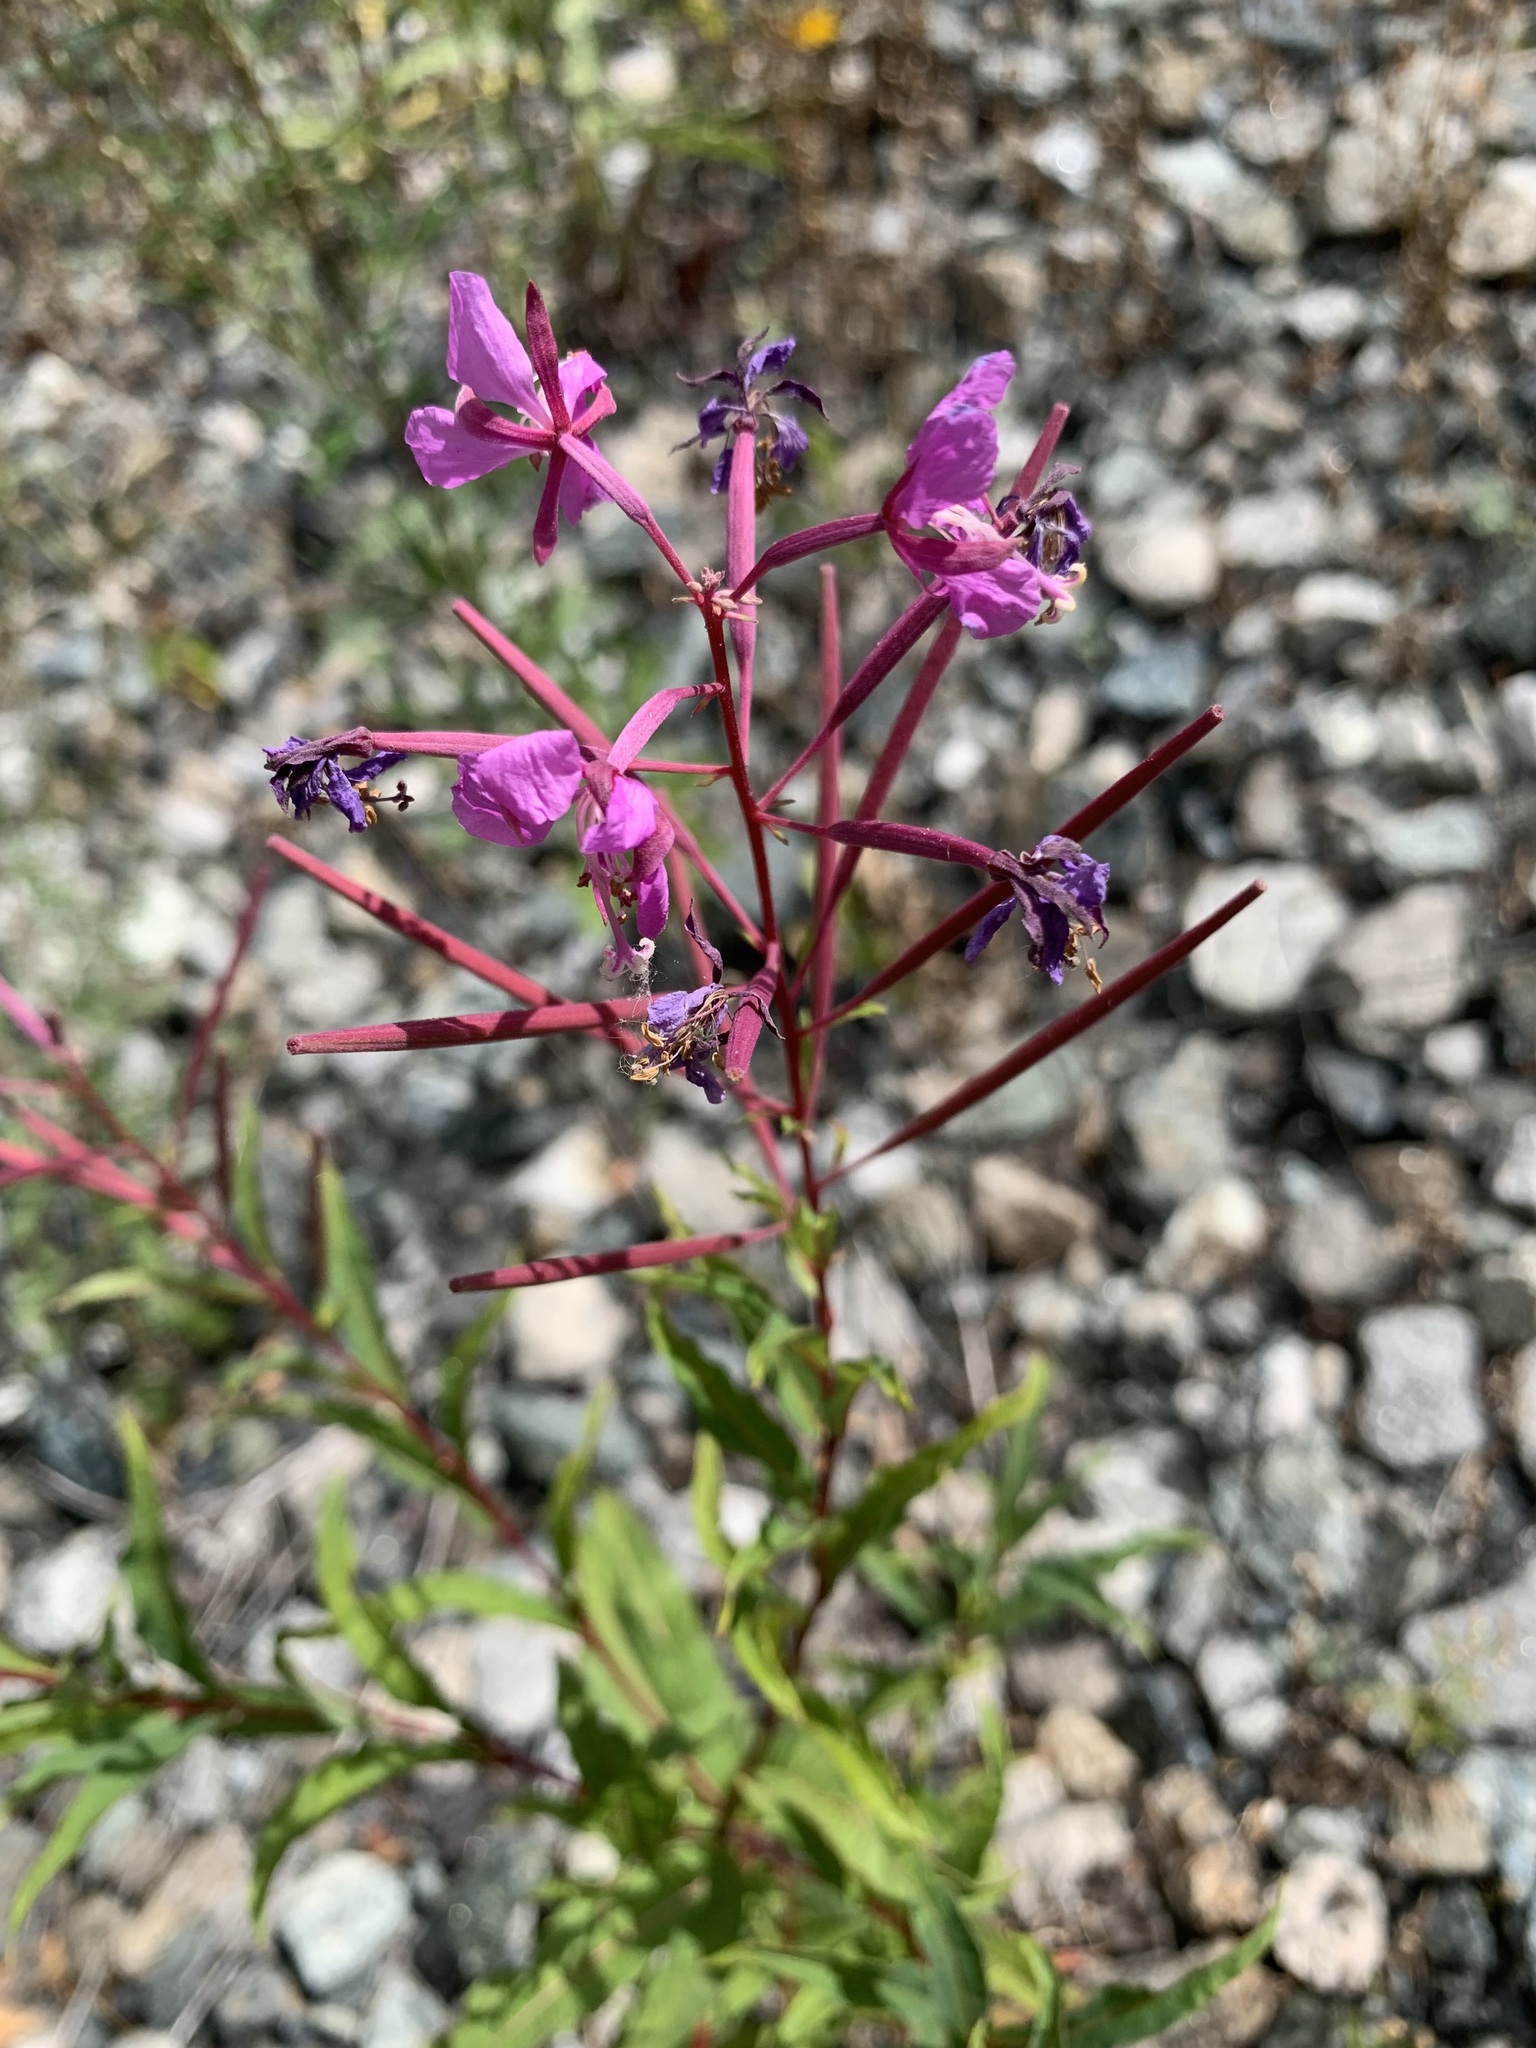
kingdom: Plantae
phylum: Tracheophyta
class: Magnoliopsida
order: Myrtales
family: Onagraceae
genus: Chamaenerion
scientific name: Chamaenerion angustifolium
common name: Fireweed
